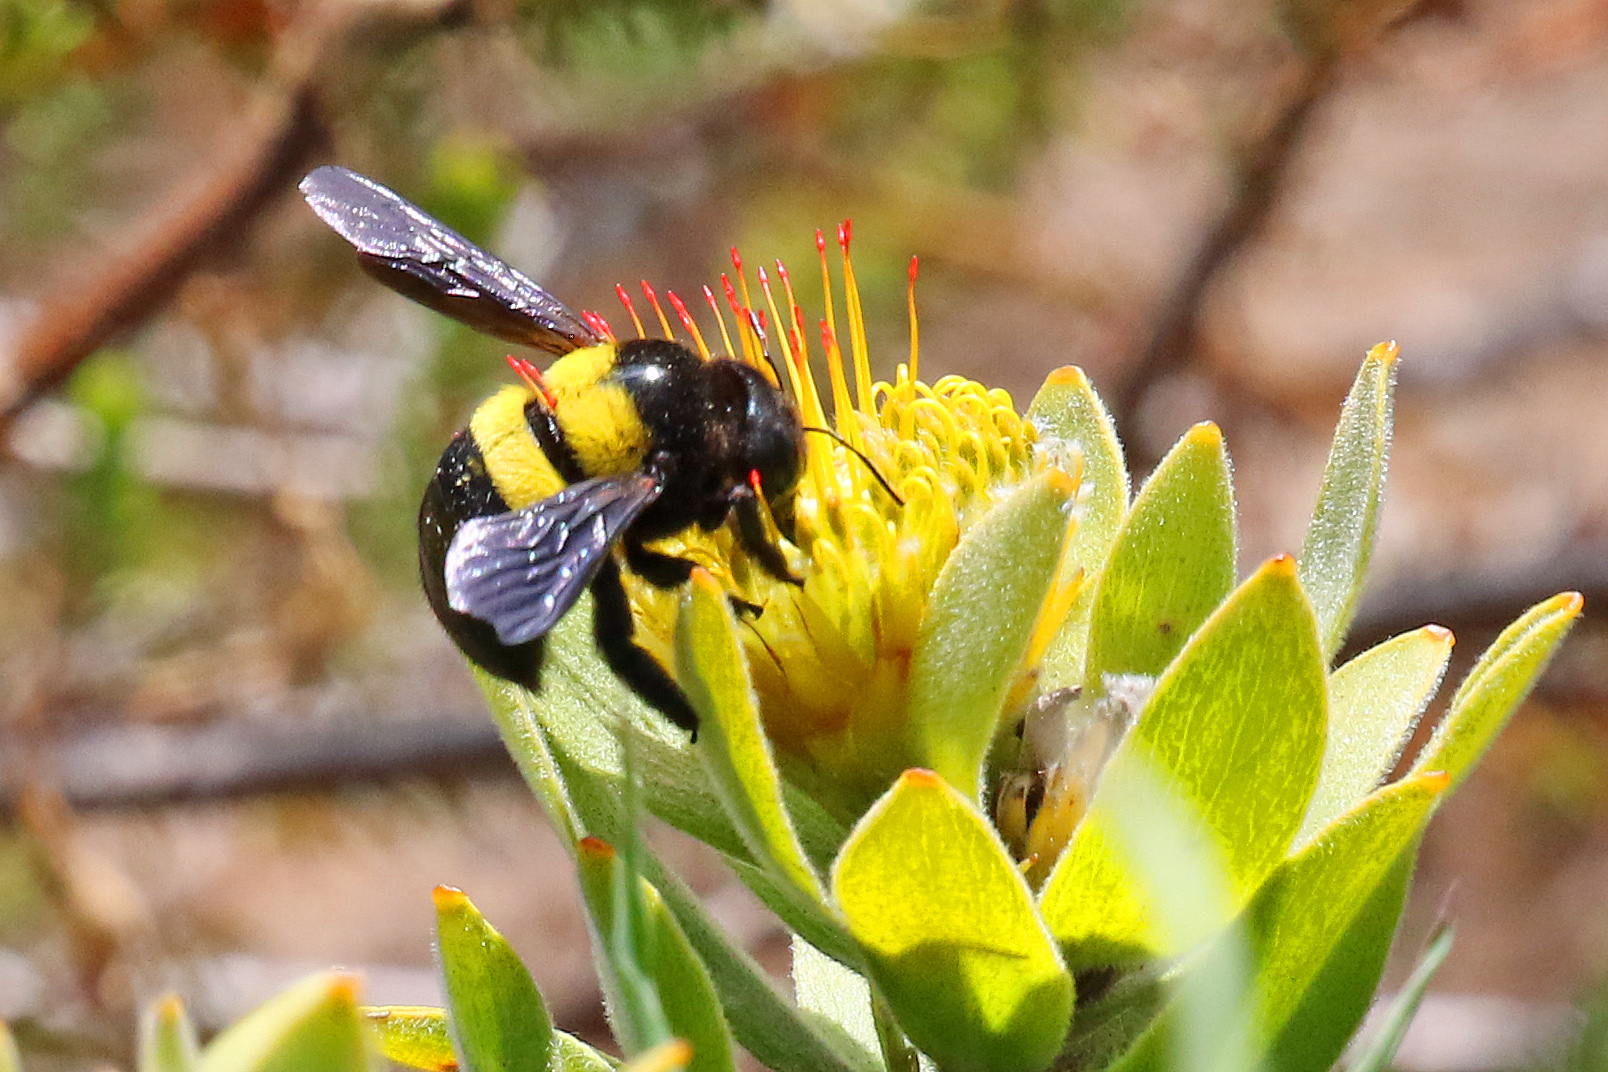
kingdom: Animalia
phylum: Arthropoda
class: Insecta
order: Hymenoptera
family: Apidae
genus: Xylocopa
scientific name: Xylocopa caffra
